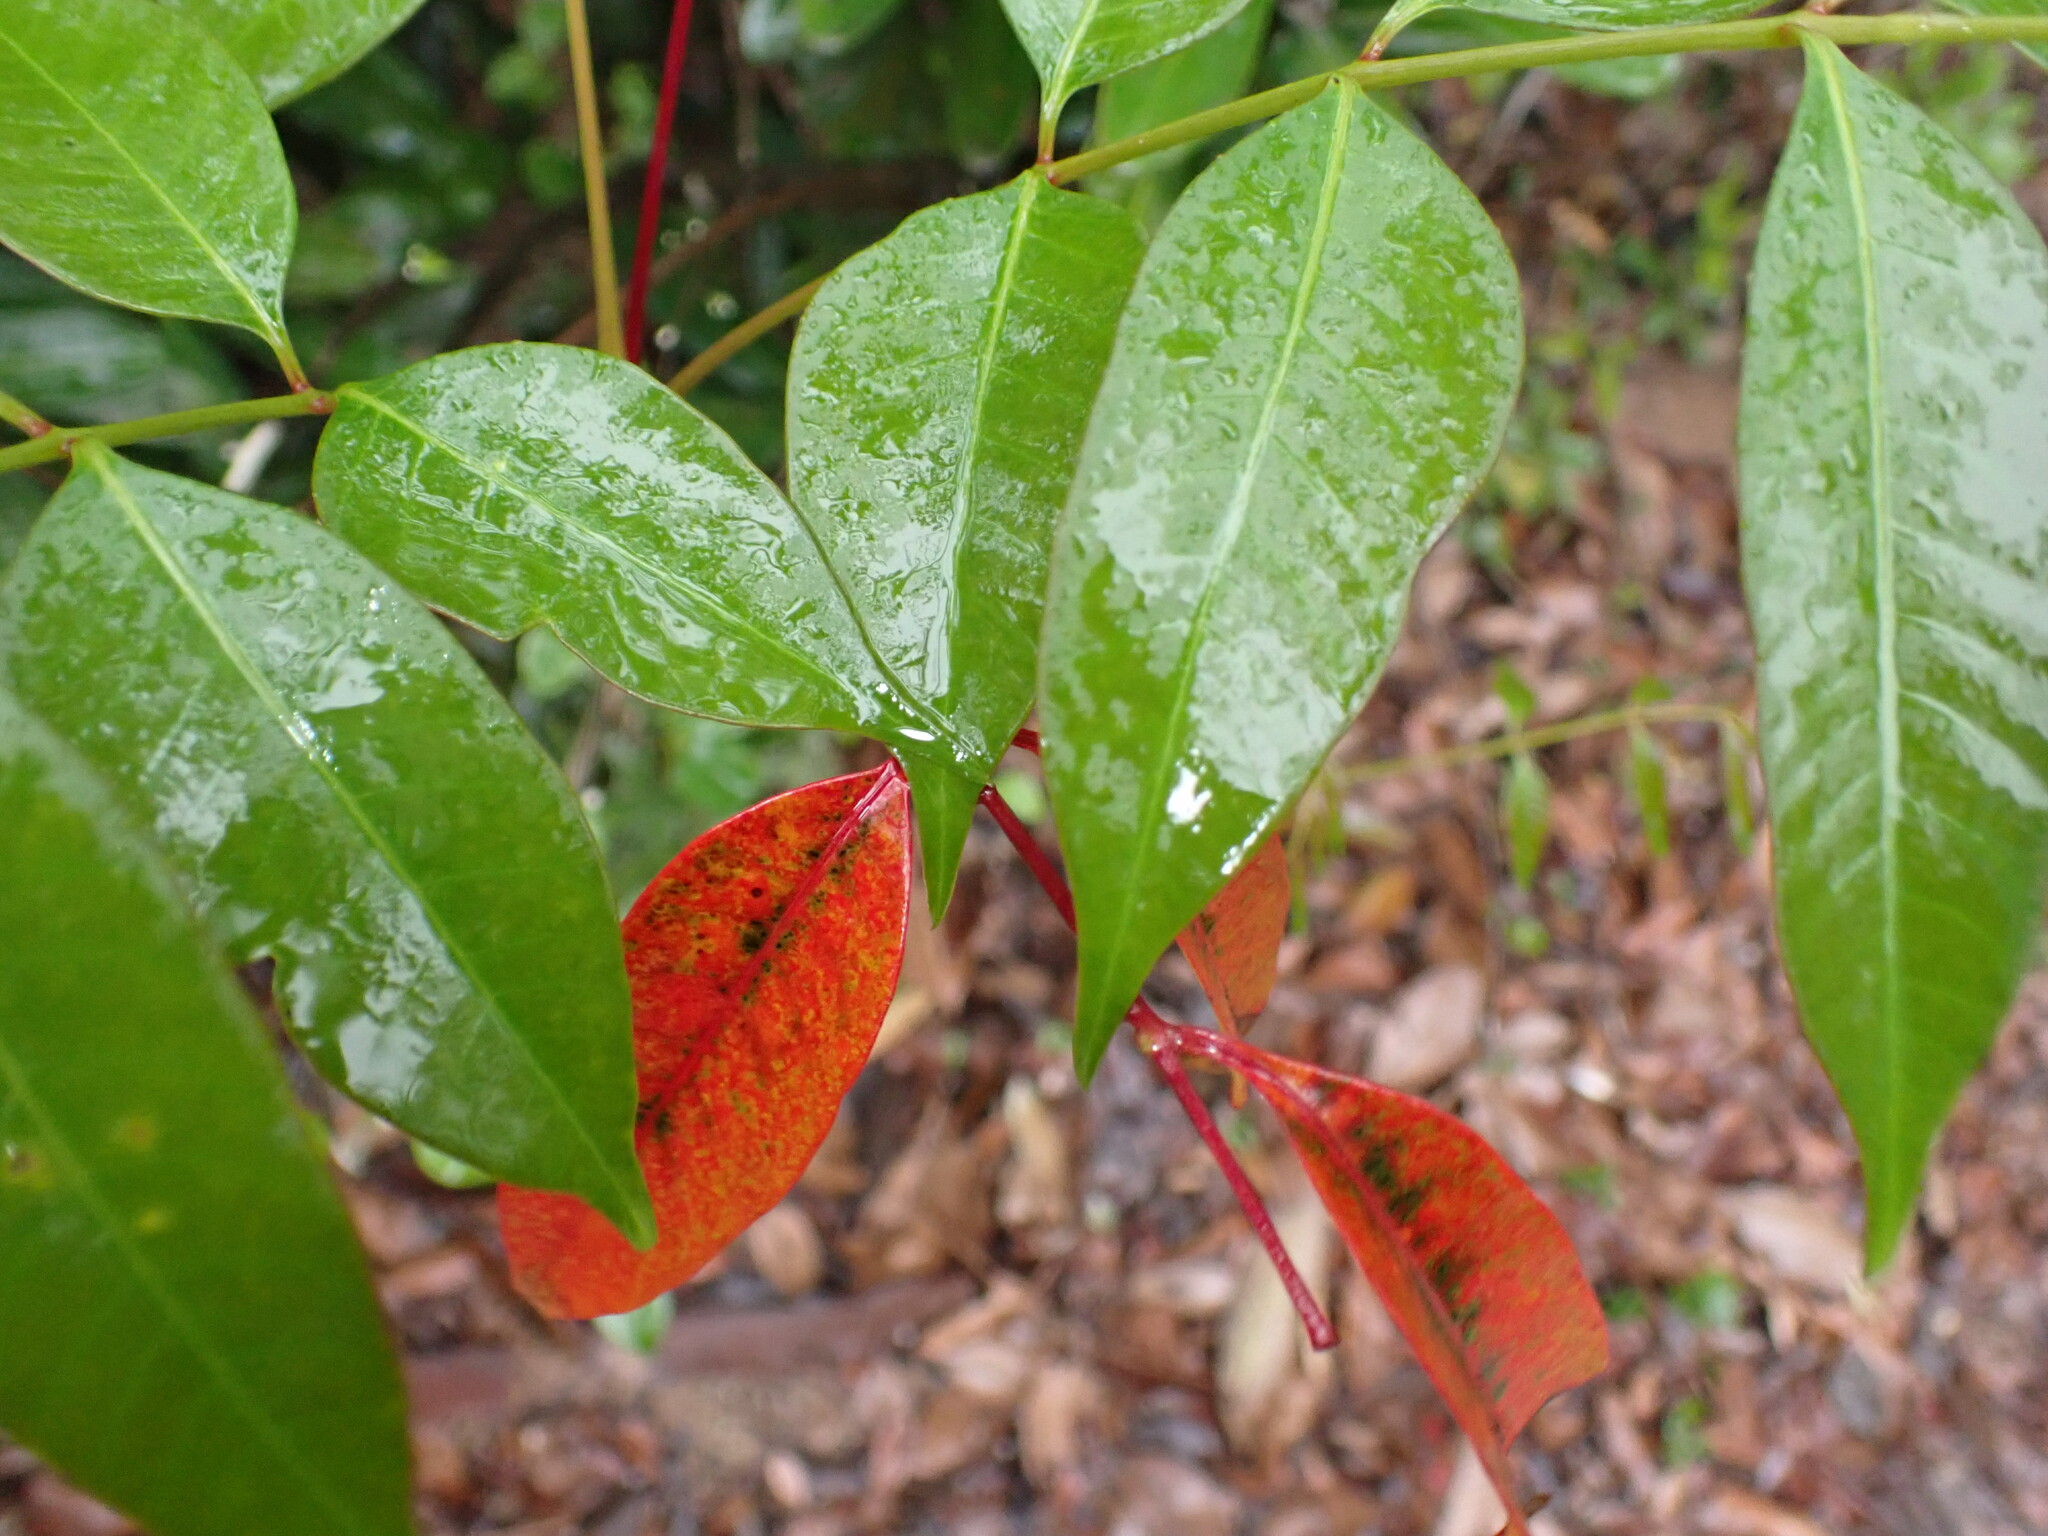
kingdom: Plantae
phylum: Tracheophyta
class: Magnoliopsida
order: Sapindales
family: Anacardiaceae
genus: Toxicodendron
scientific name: Toxicodendron succedaneum
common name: Wax tree
